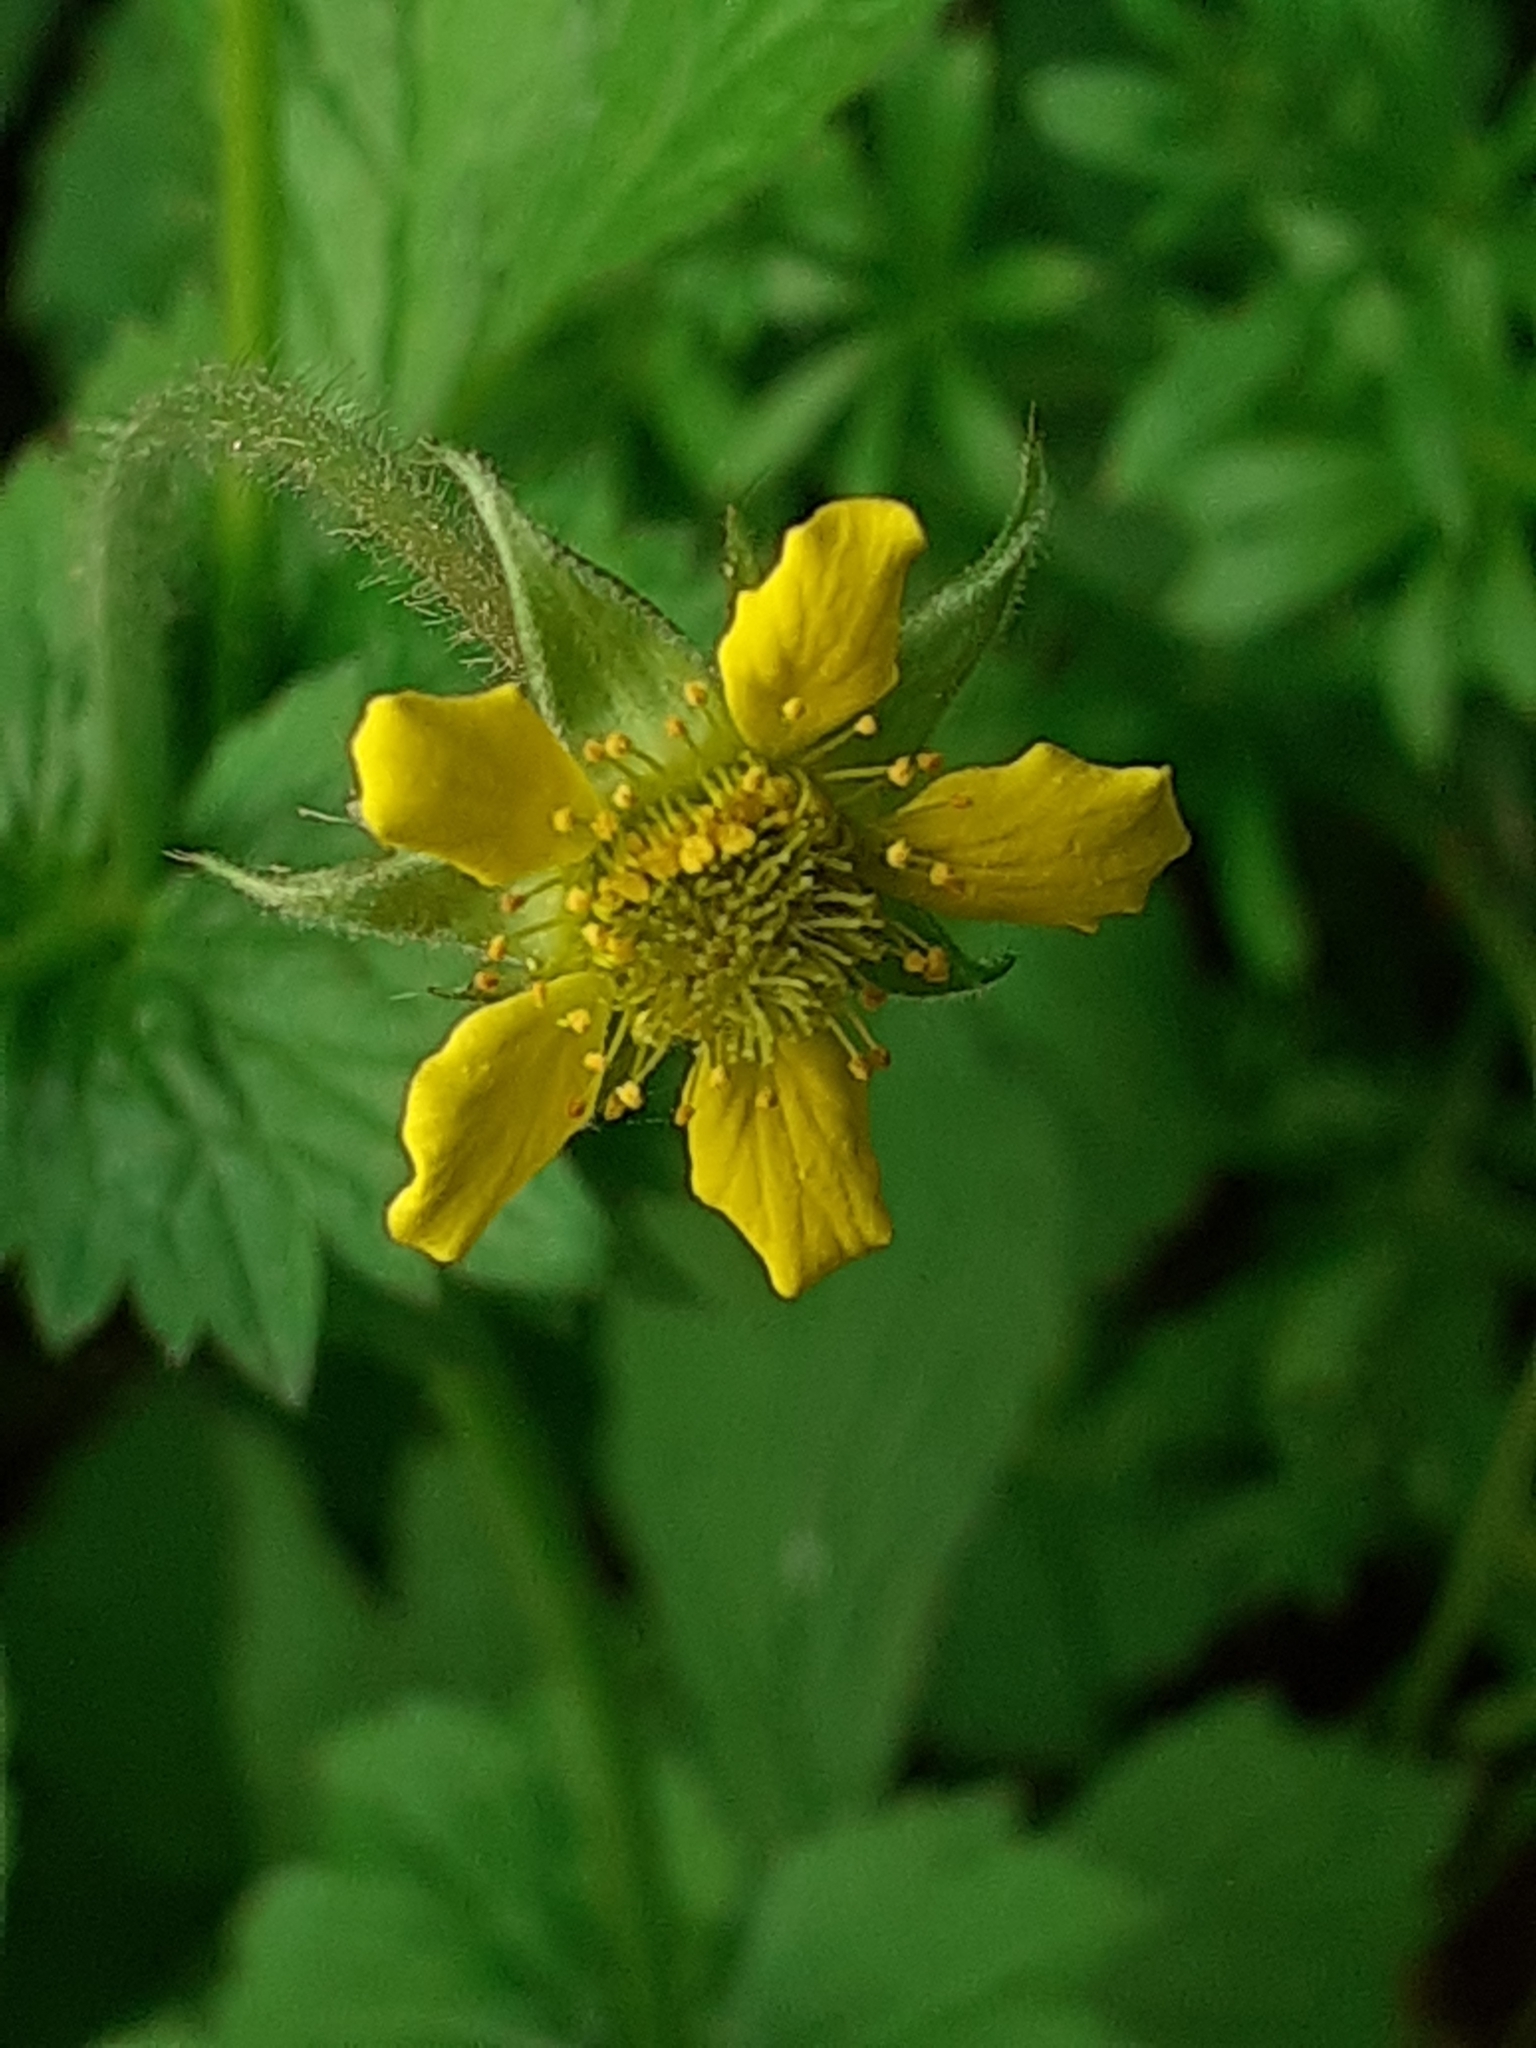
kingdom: Plantae
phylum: Tracheophyta
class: Magnoliopsida
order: Rosales
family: Rosaceae
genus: Geum
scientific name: Geum urbanum
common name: Wood avens
